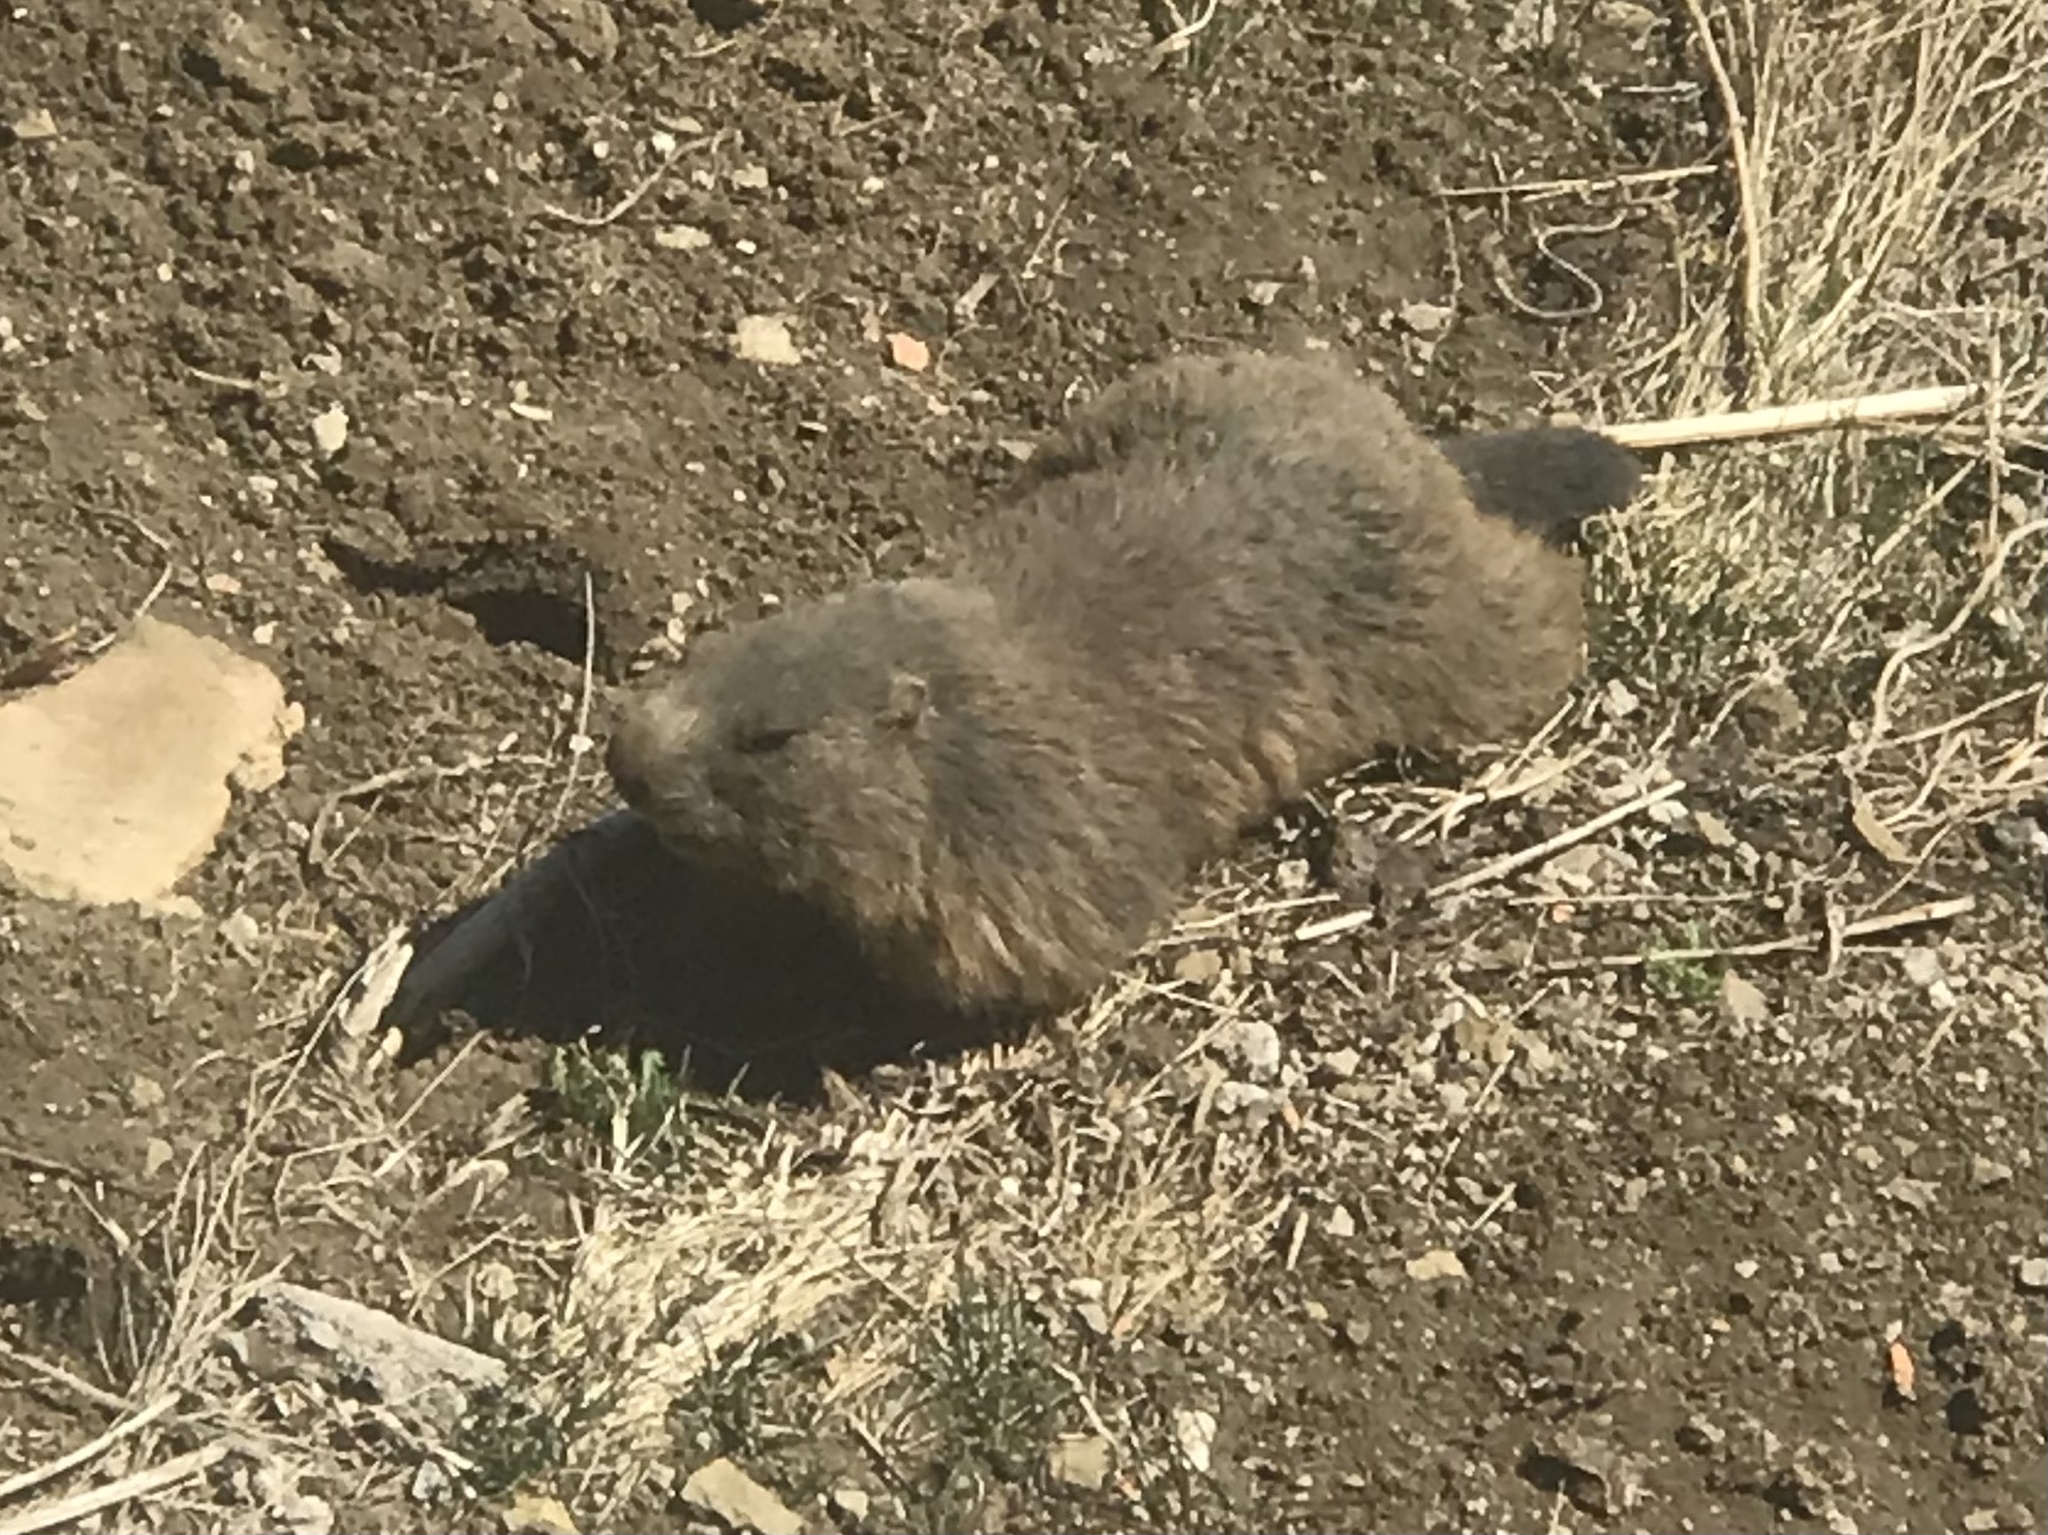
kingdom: Animalia
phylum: Chordata
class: Mammalia
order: Rodentia
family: Sciuridae
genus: Marmota
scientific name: Marmota marmota
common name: Alpine marmot
